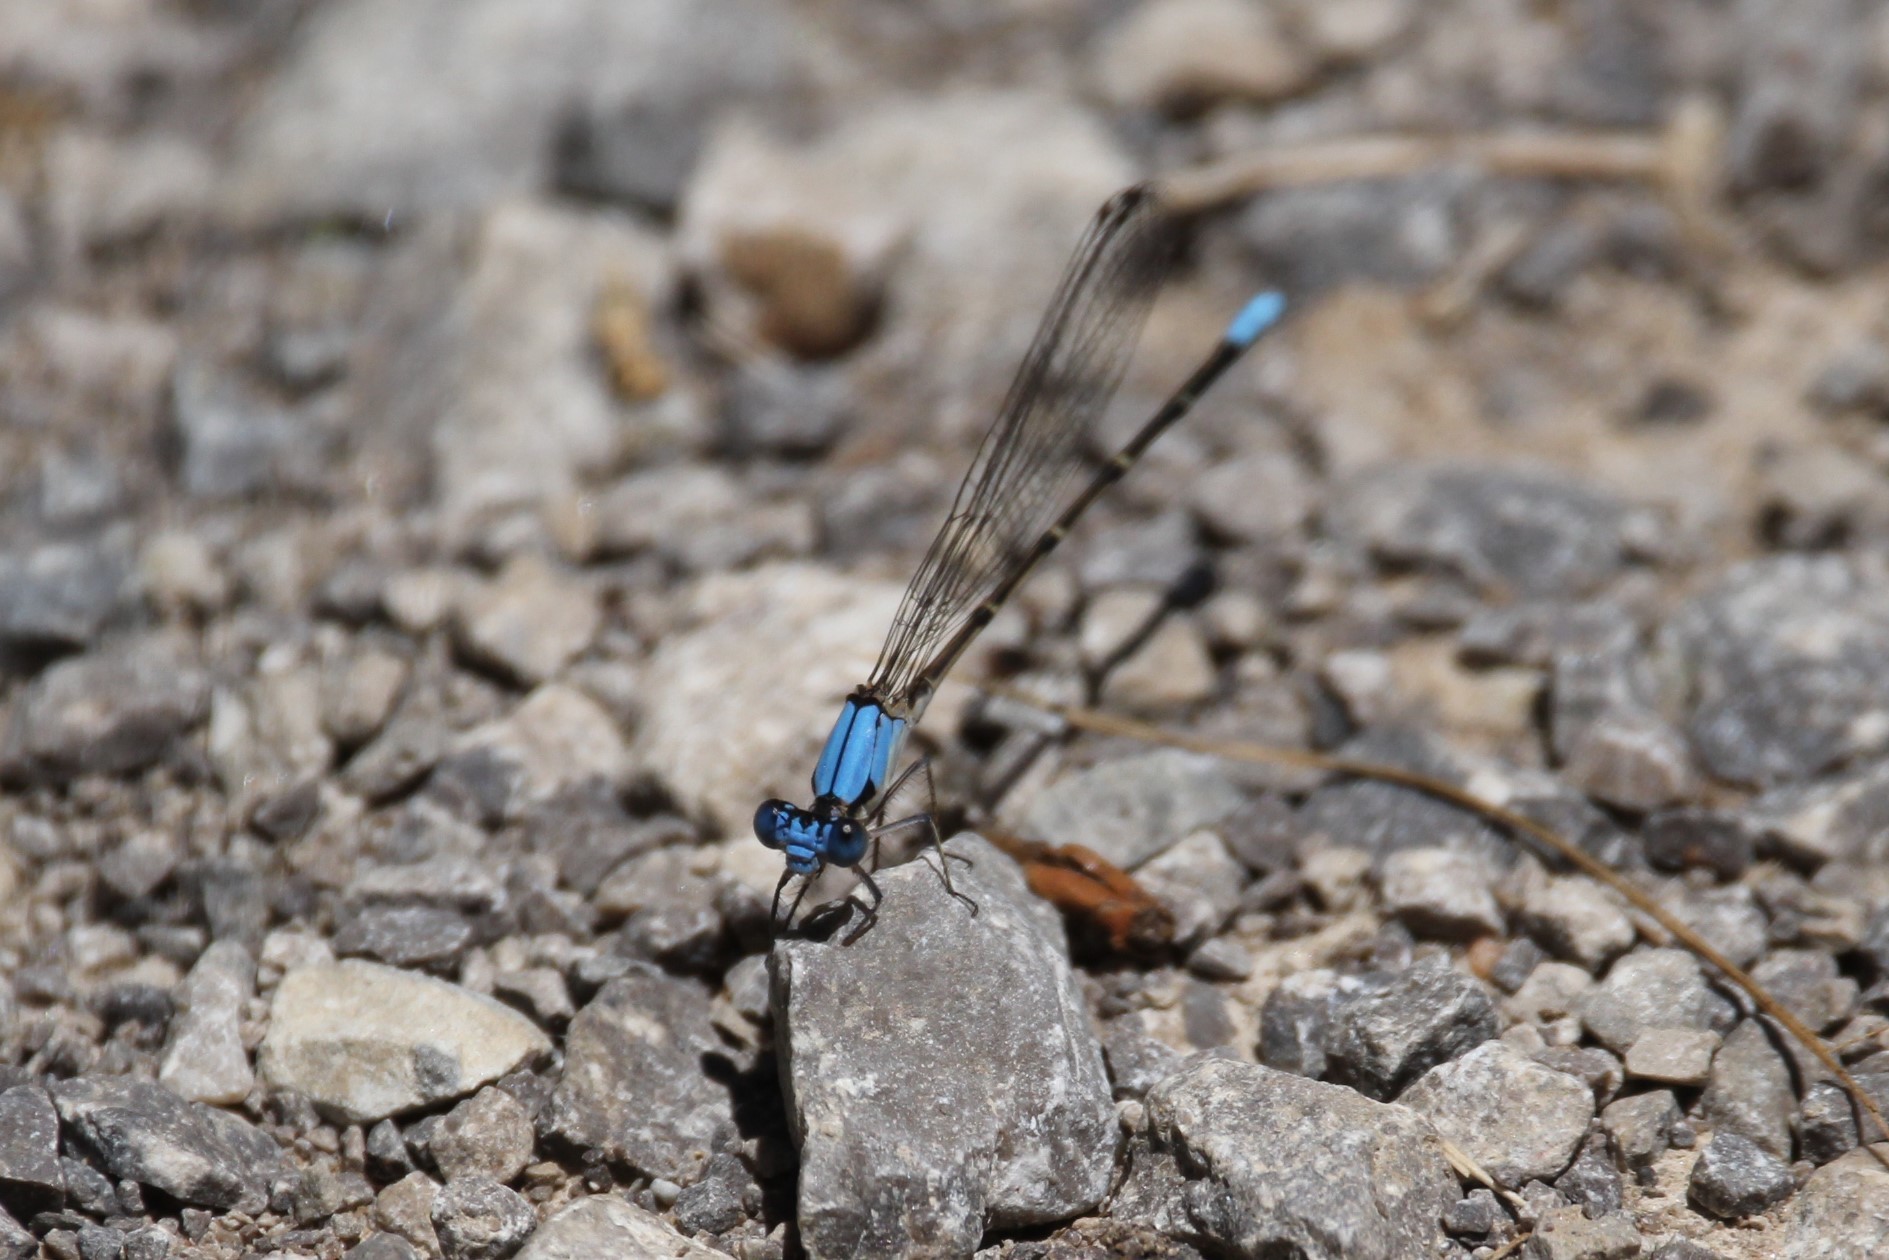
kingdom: Animalia
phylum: Arthropoda
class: Insecta
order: Odonata
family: Coenagrionidae
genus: Argia
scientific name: Argia apicalis
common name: Blue-fronted dancer
